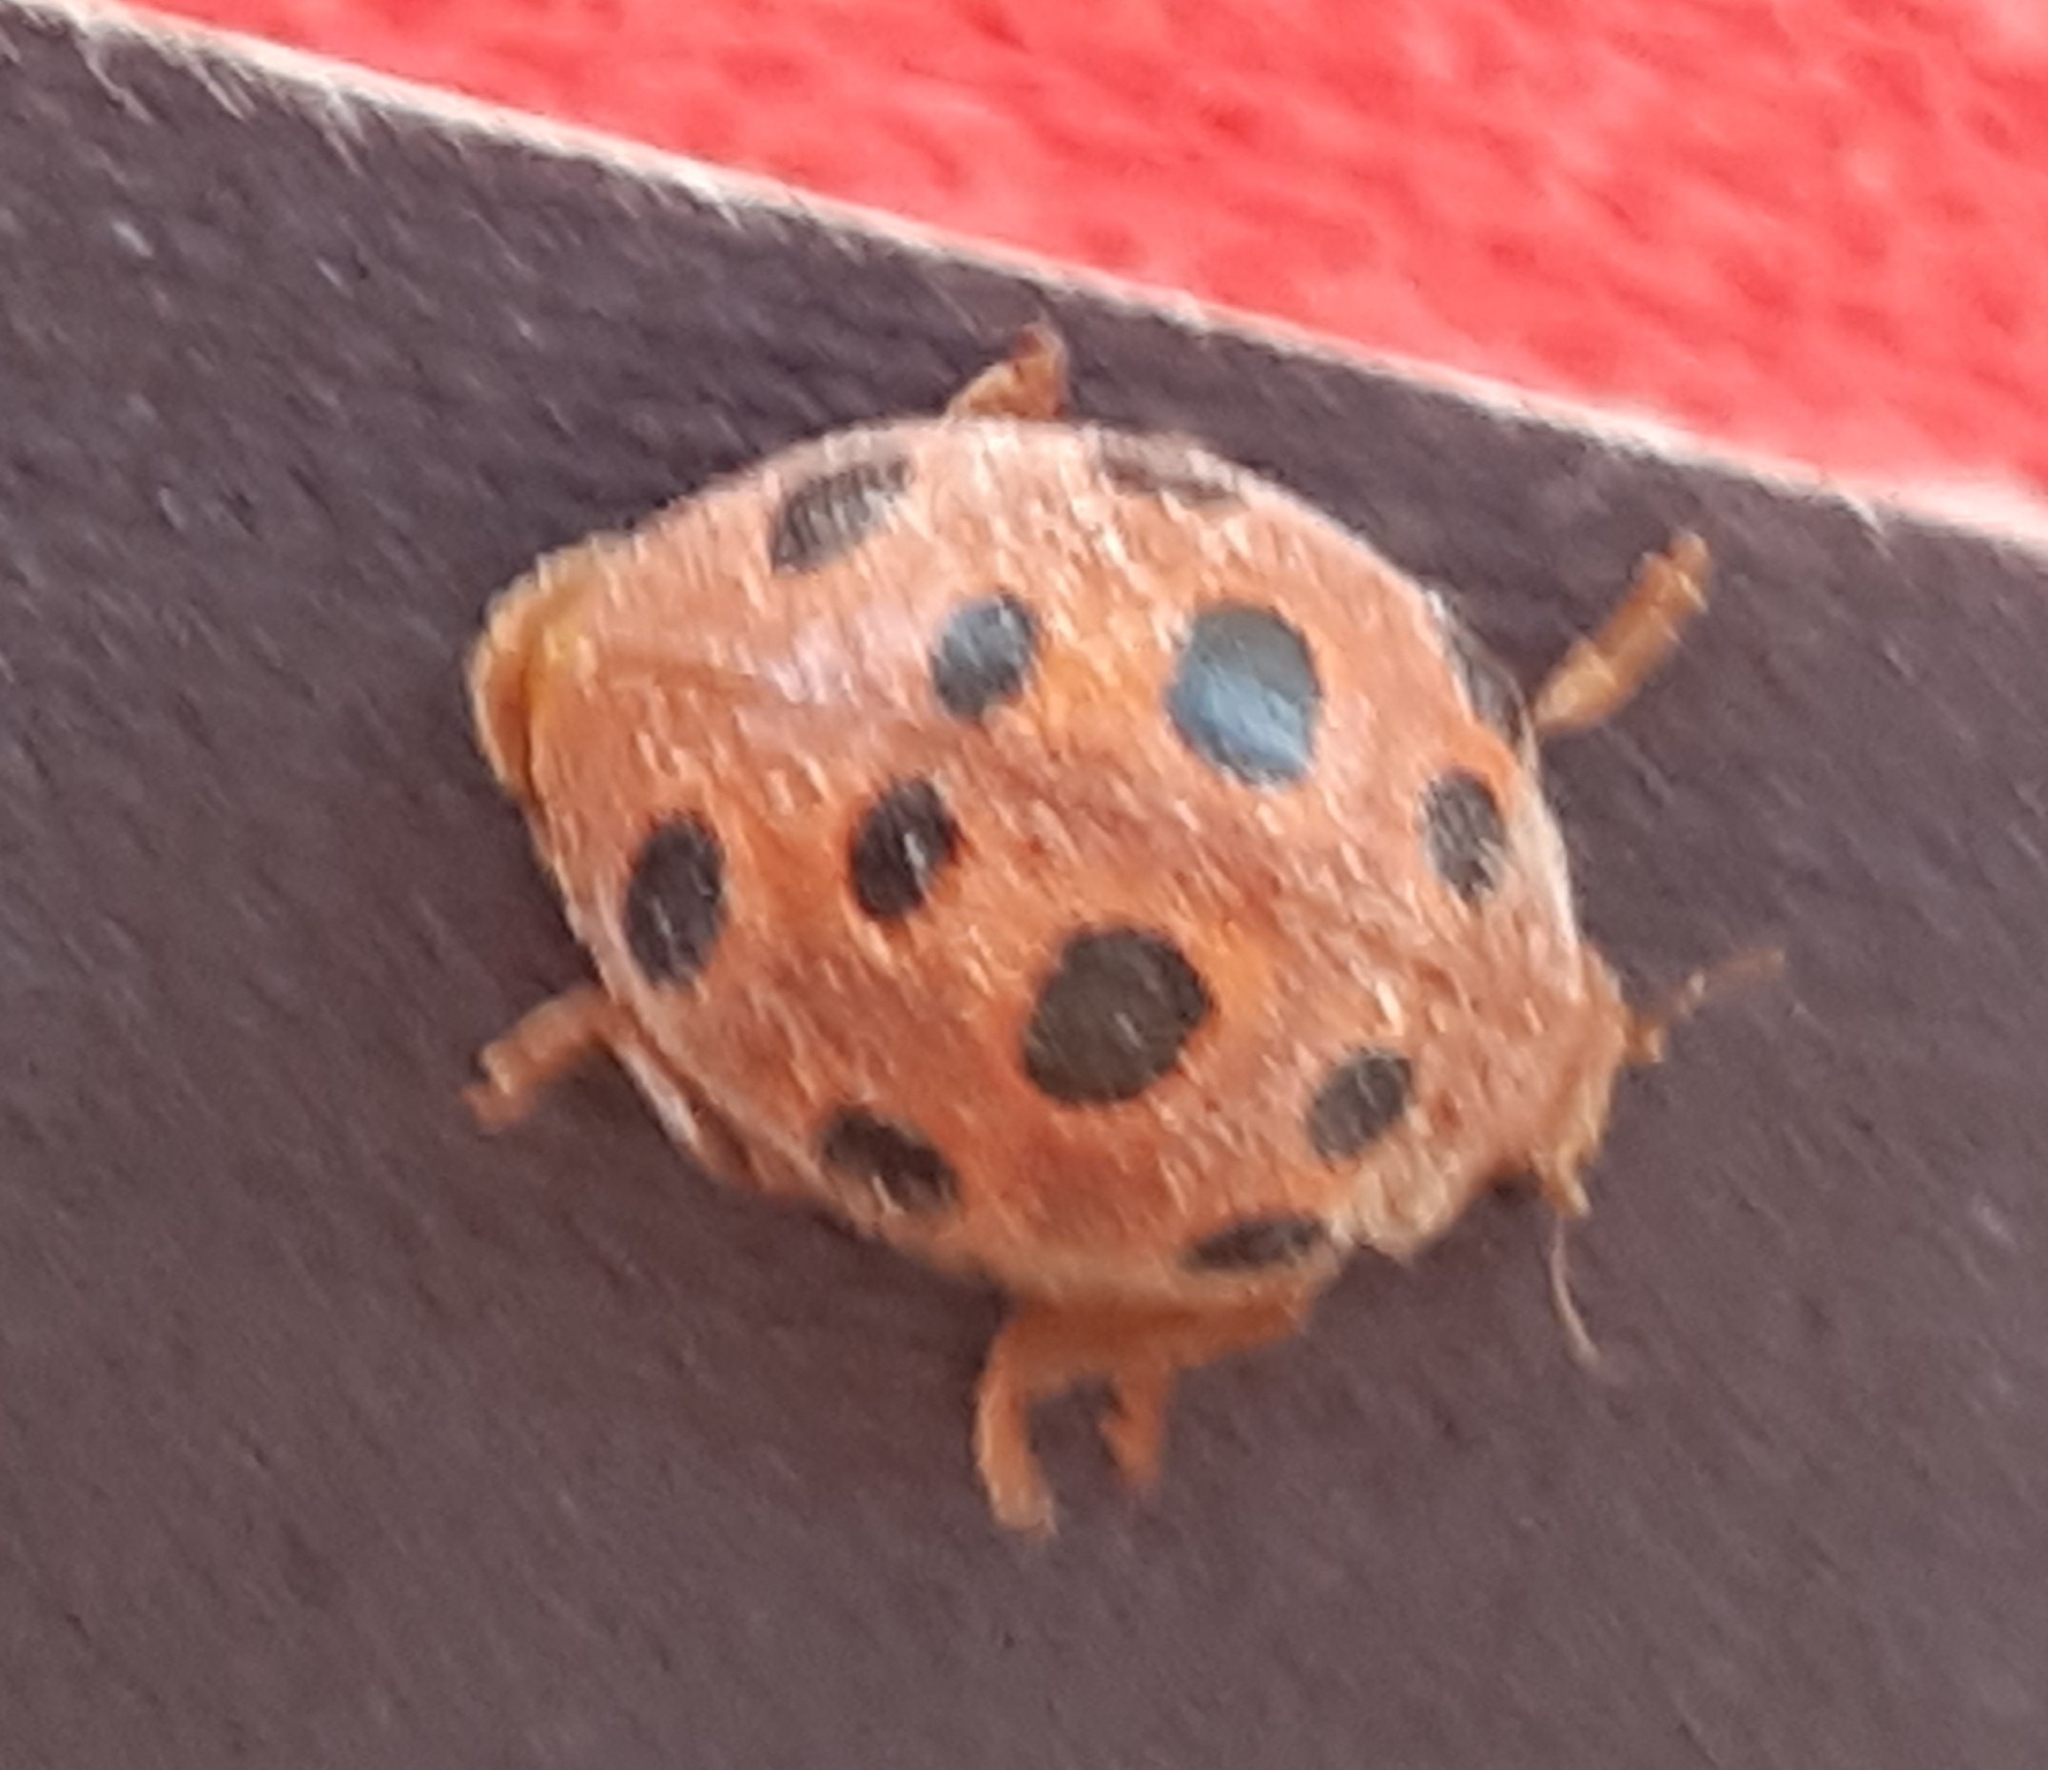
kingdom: Animalia
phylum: Arthropoda
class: Insecta
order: Coleoptera
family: Coccinellidae
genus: Chnootriba
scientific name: Chnootriba elaterii
